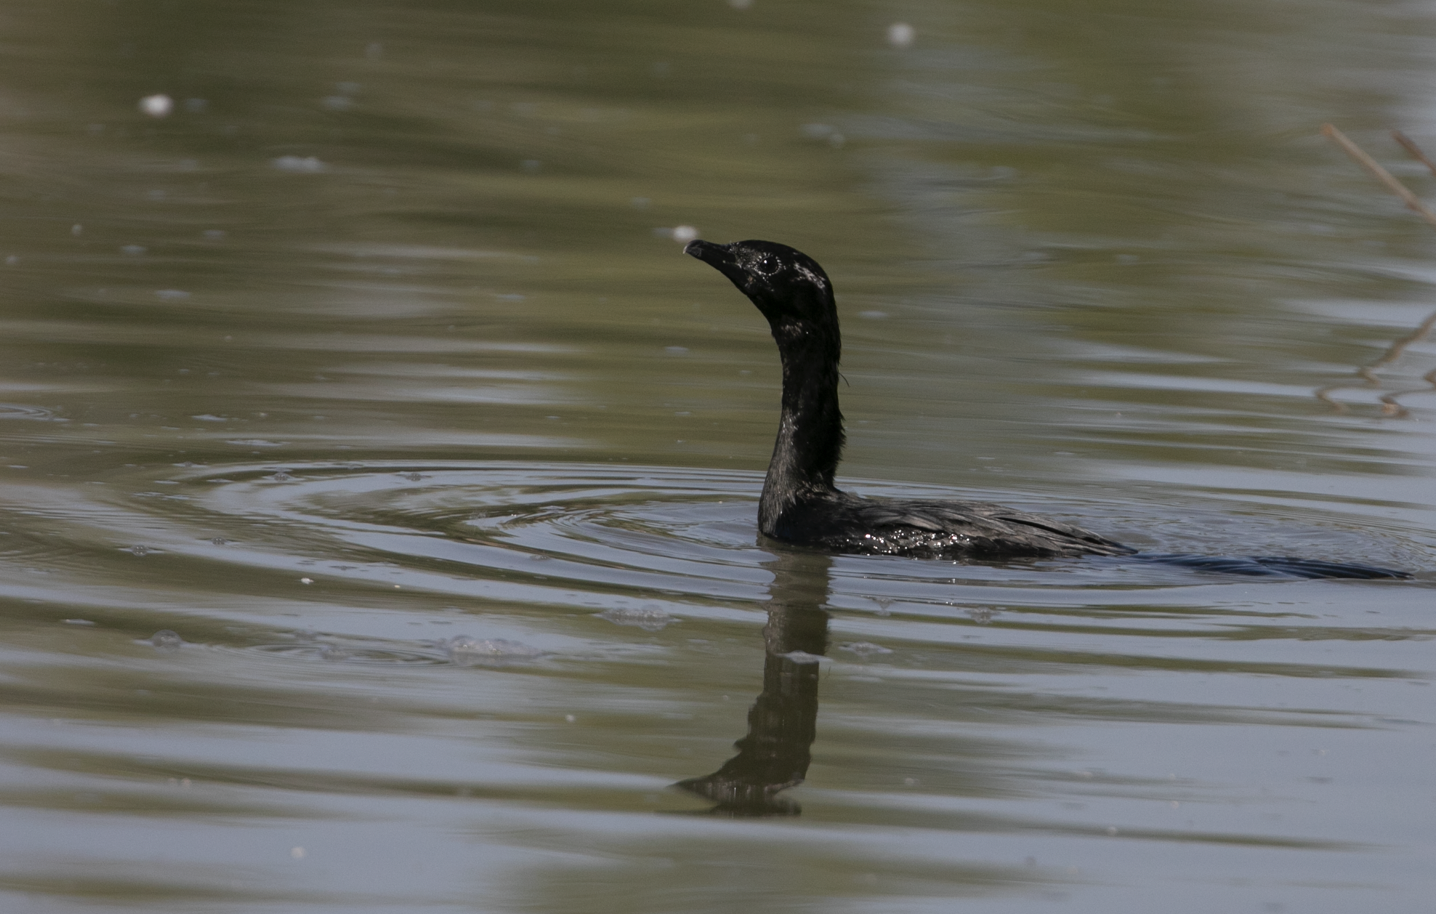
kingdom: Animalia
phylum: Chordata
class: Aves
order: Suliformes
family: Phalacrocoracidae
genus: Microcarbo
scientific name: Microcarbo pygmaeus
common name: Pygmy cormorant
